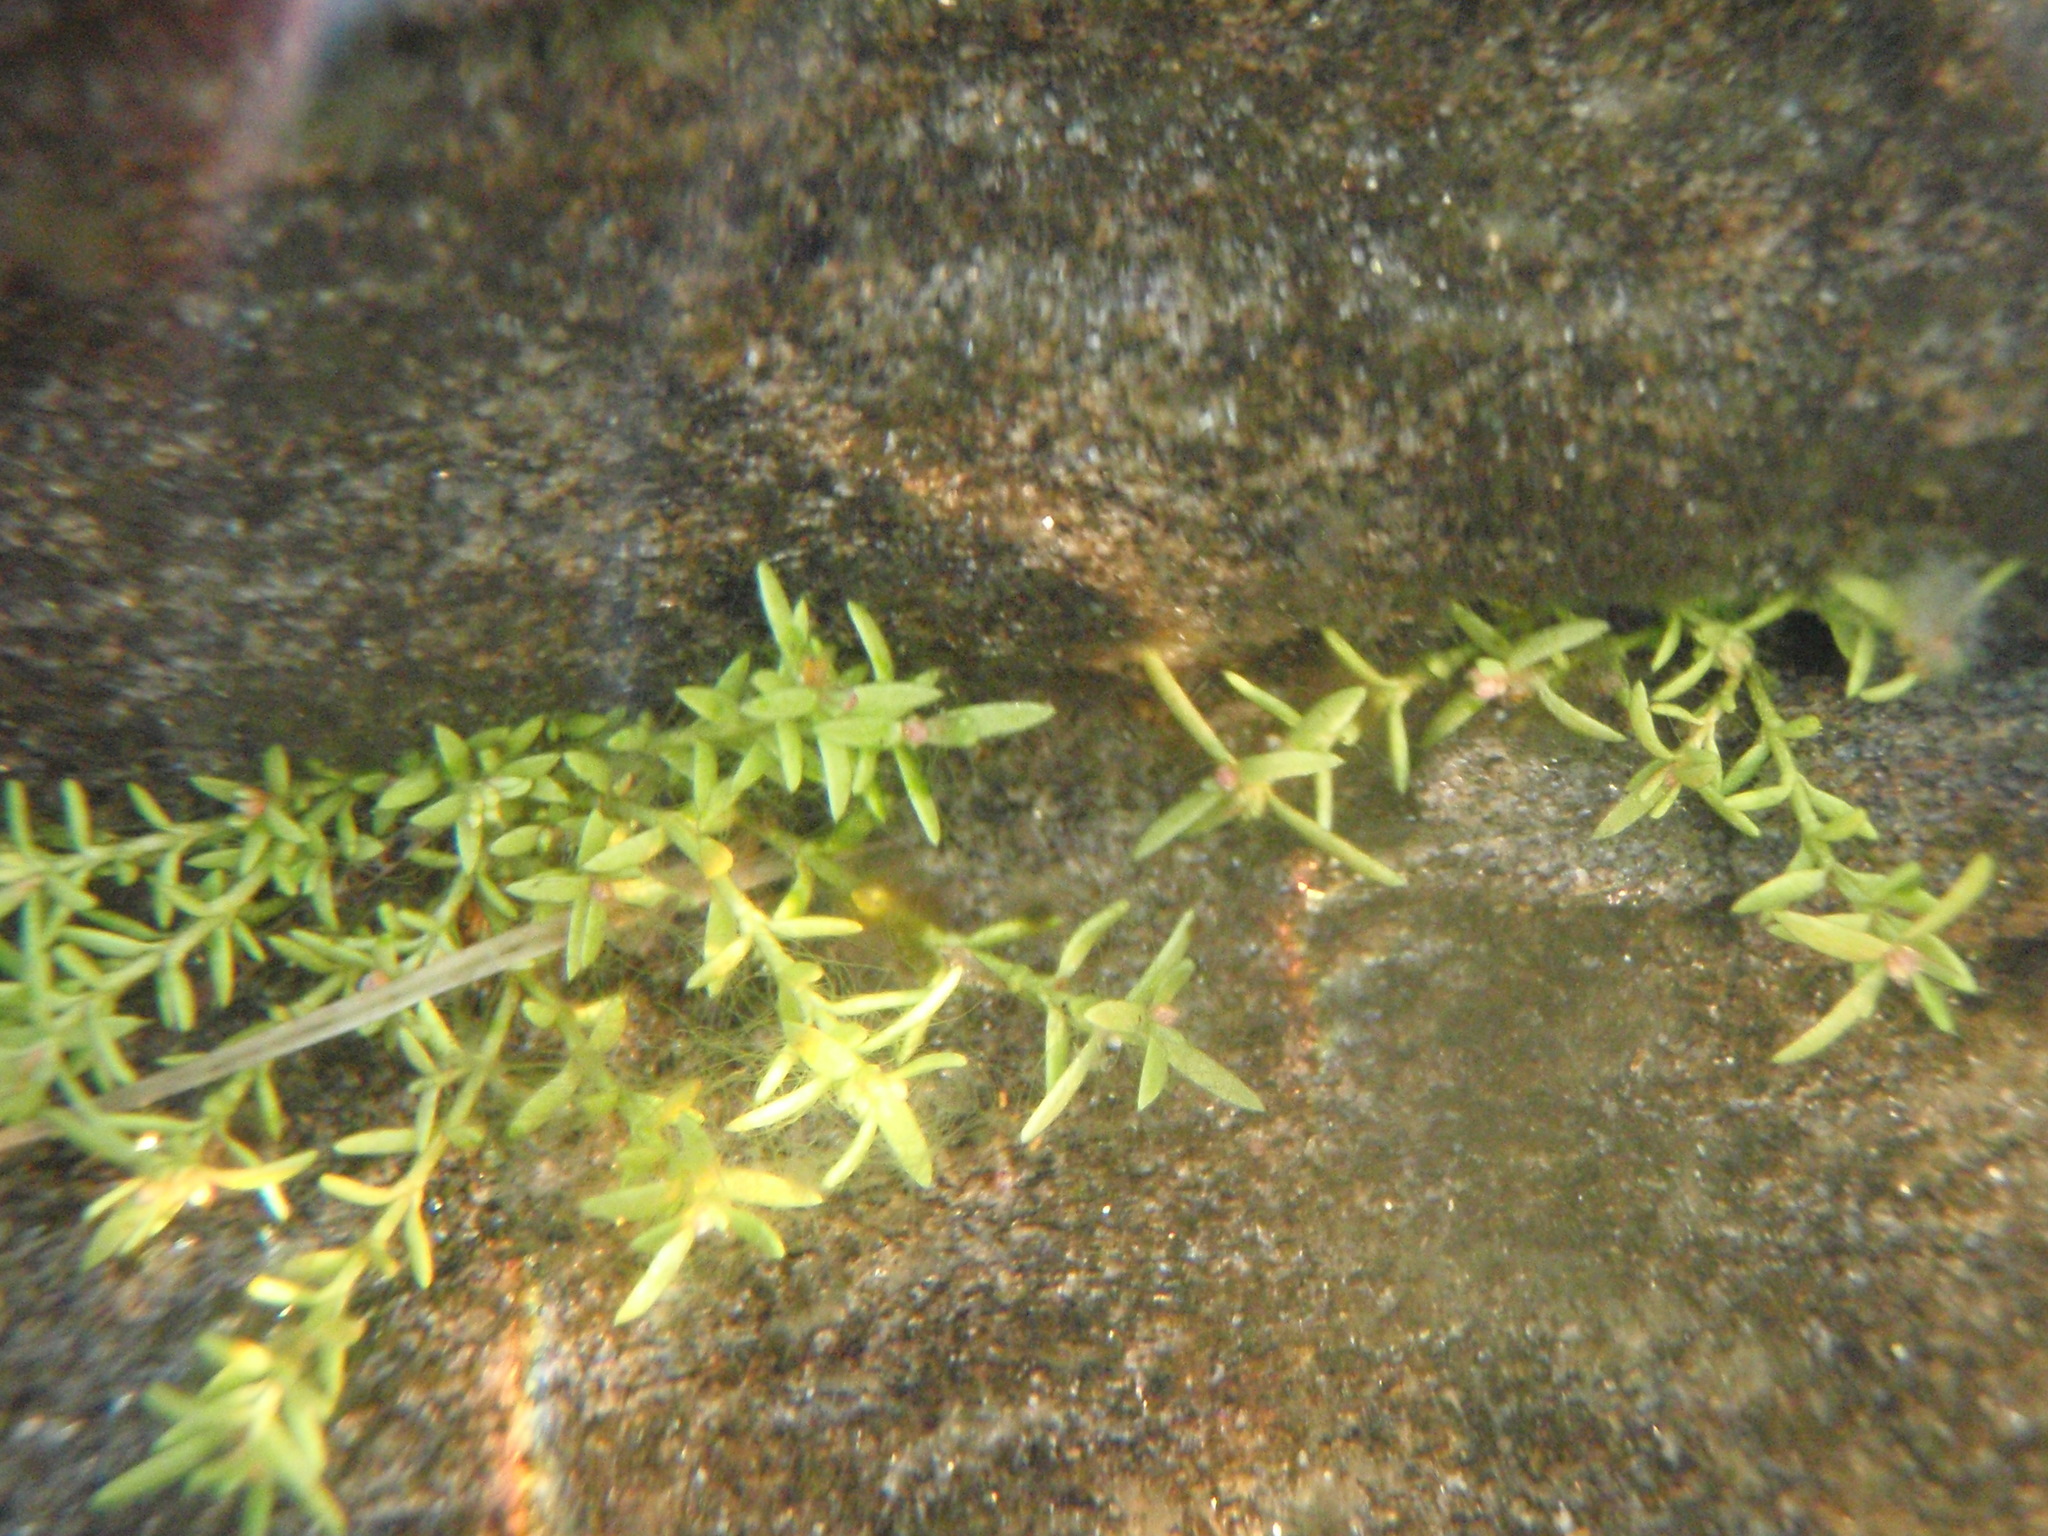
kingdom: Plantae
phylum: Tracheophyta
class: Magnoliopsida
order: Saxifragales
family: Crassulaceae
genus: Crassula
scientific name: Crassula aquatica
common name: Pigmyweed
